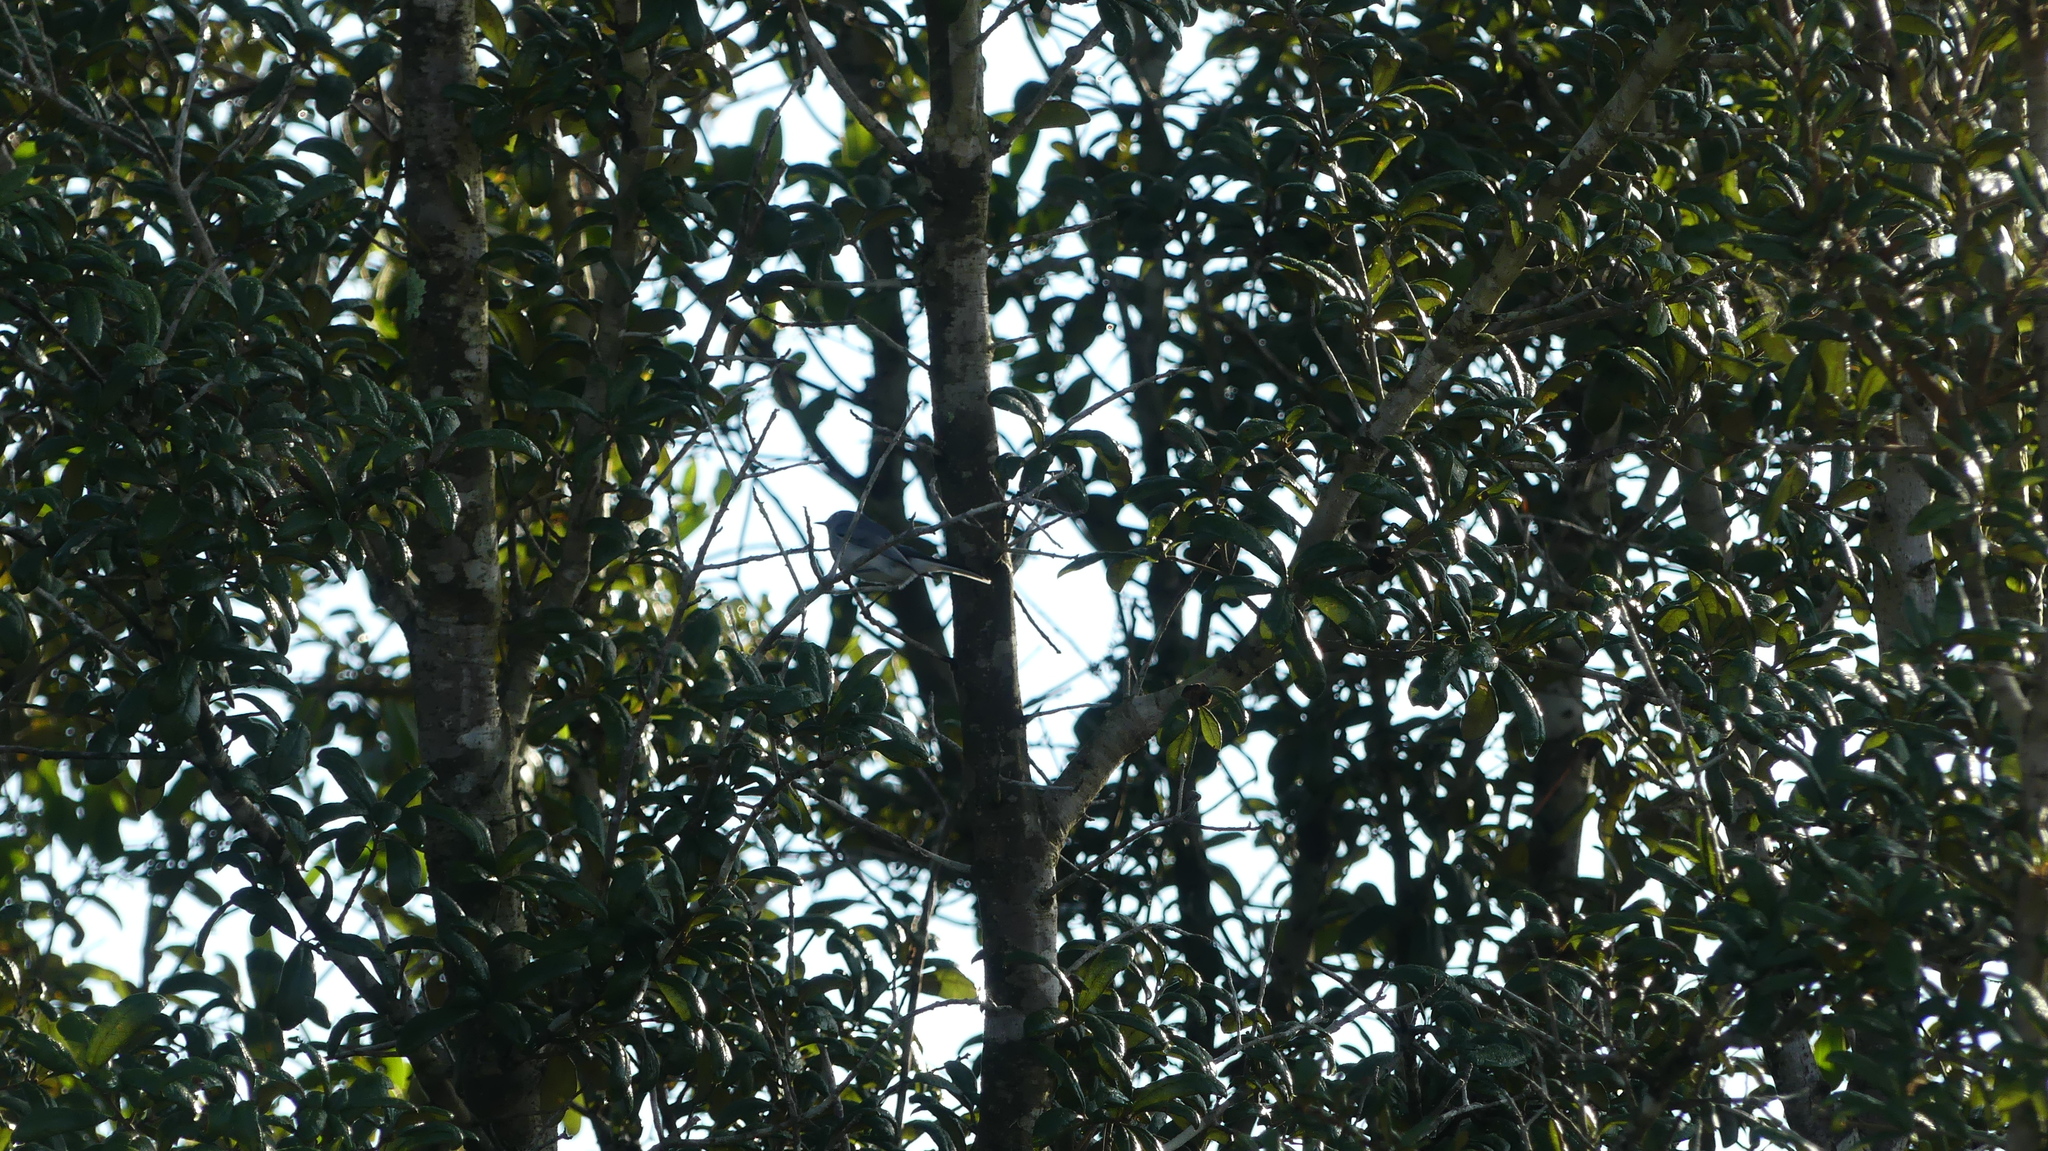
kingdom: Animalia
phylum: Chordata
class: Aves
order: Passeriformes
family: Polioptilidae
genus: Polioptila
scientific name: Polioptila caerulea
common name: Blue-gray gnatcatcher
